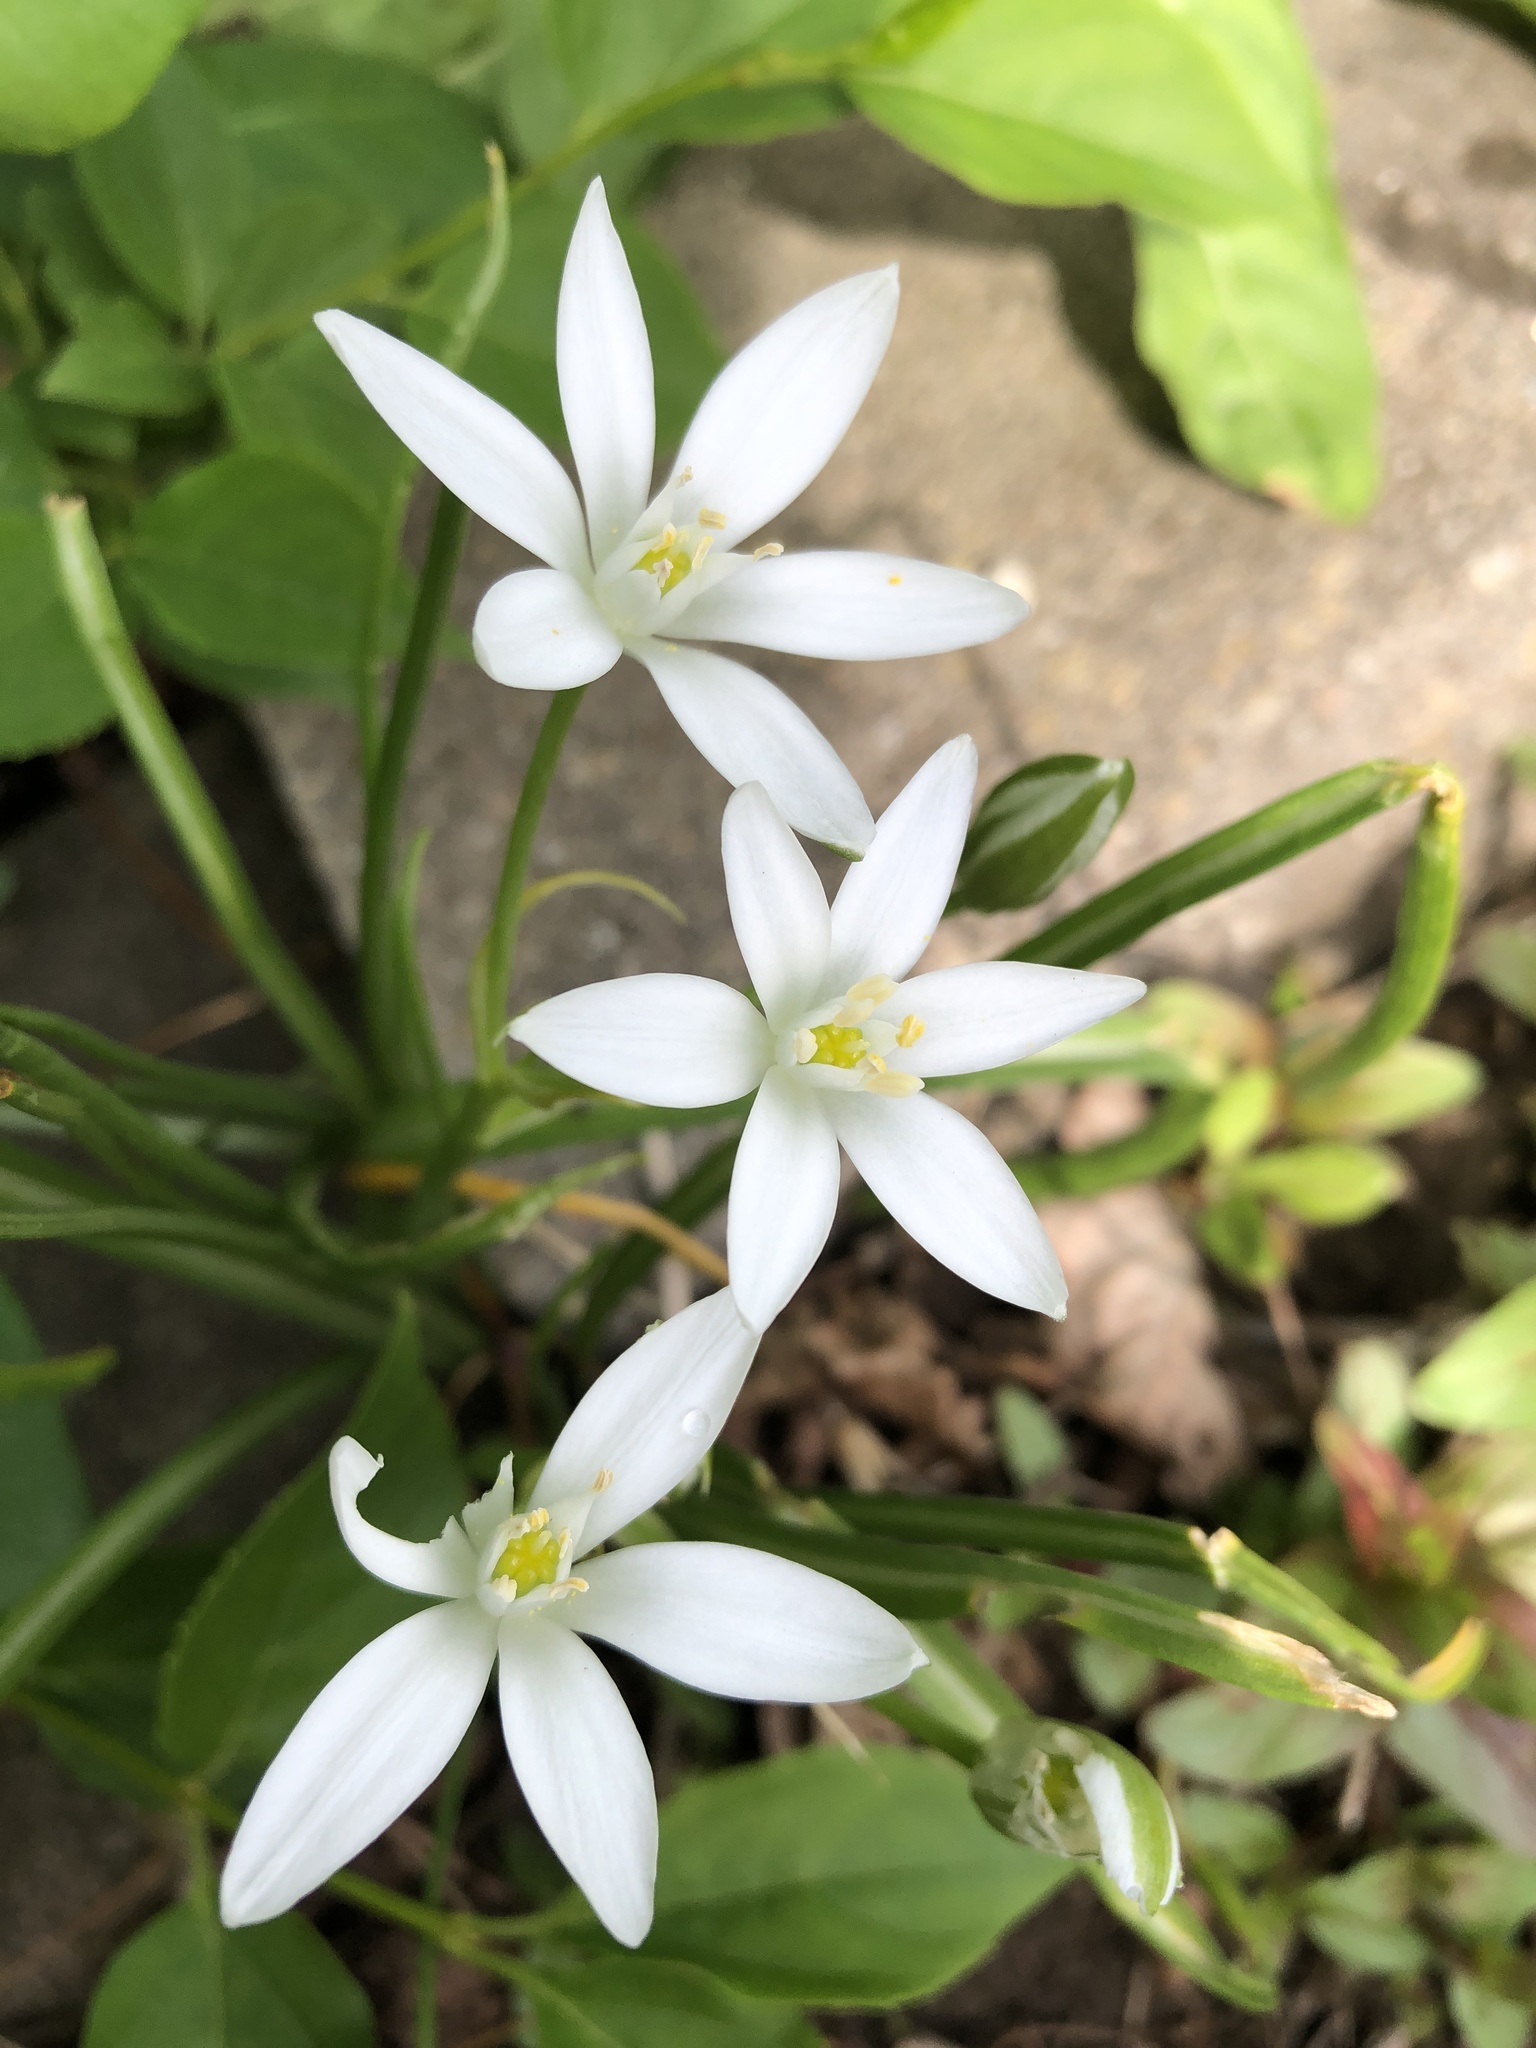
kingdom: Plantae
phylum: Tracheophyta
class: Liliopsida
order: Asparagales
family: Asparagaceae
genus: Ornithogalum
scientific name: Ornithogalum umbellatum
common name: Garden star-of-bethlehem
